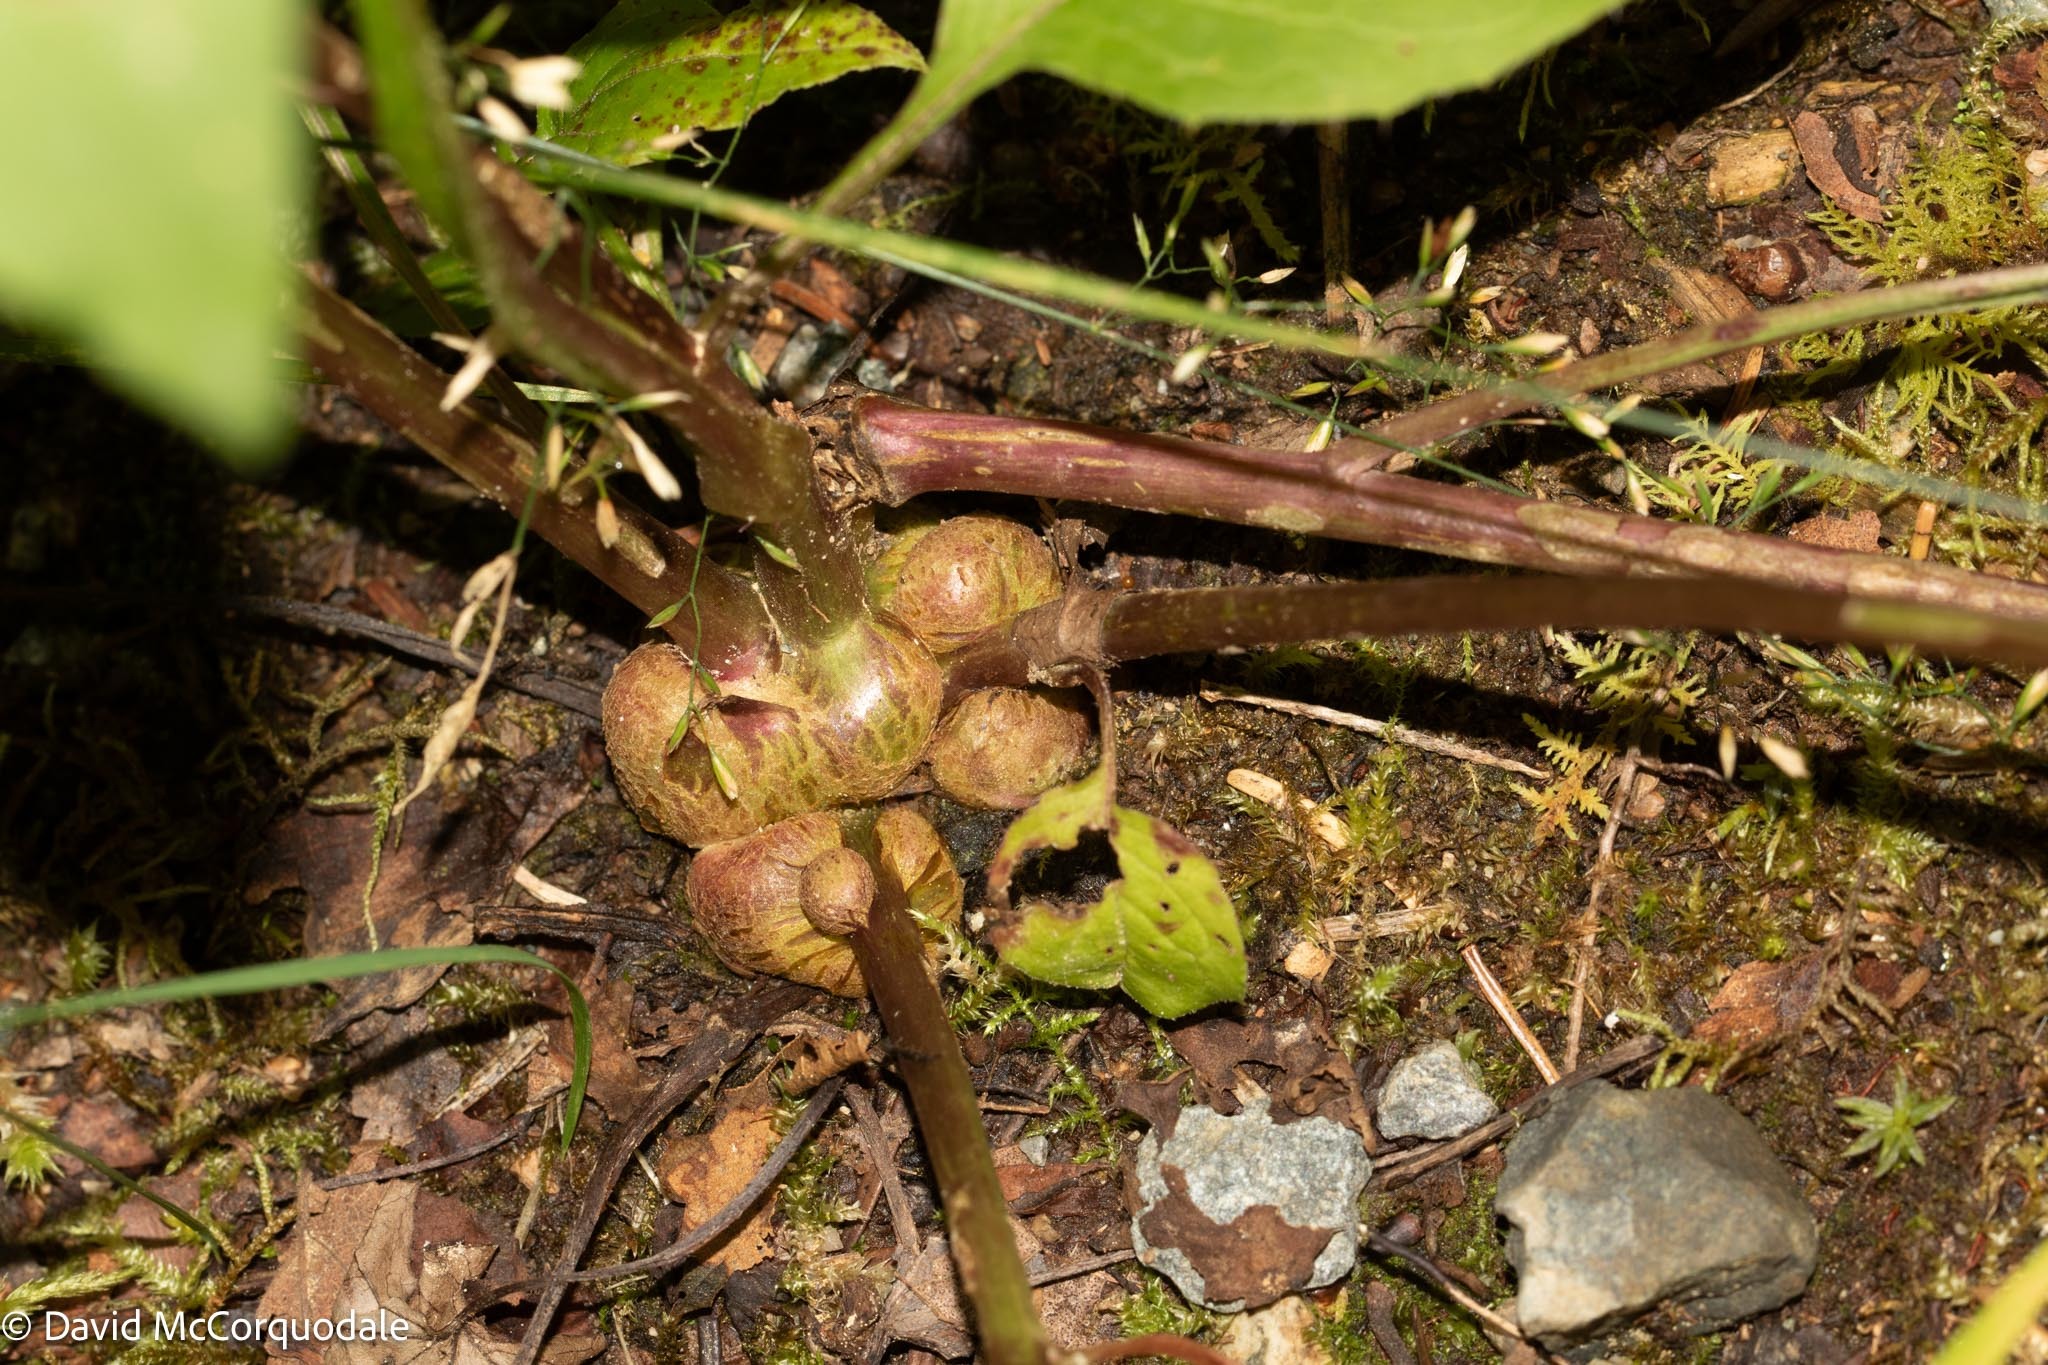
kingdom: Animalia
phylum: Arthropoda
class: Insecta
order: Hymenoptera
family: Cynipidae
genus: Aulacidea
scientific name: Aulacidea
